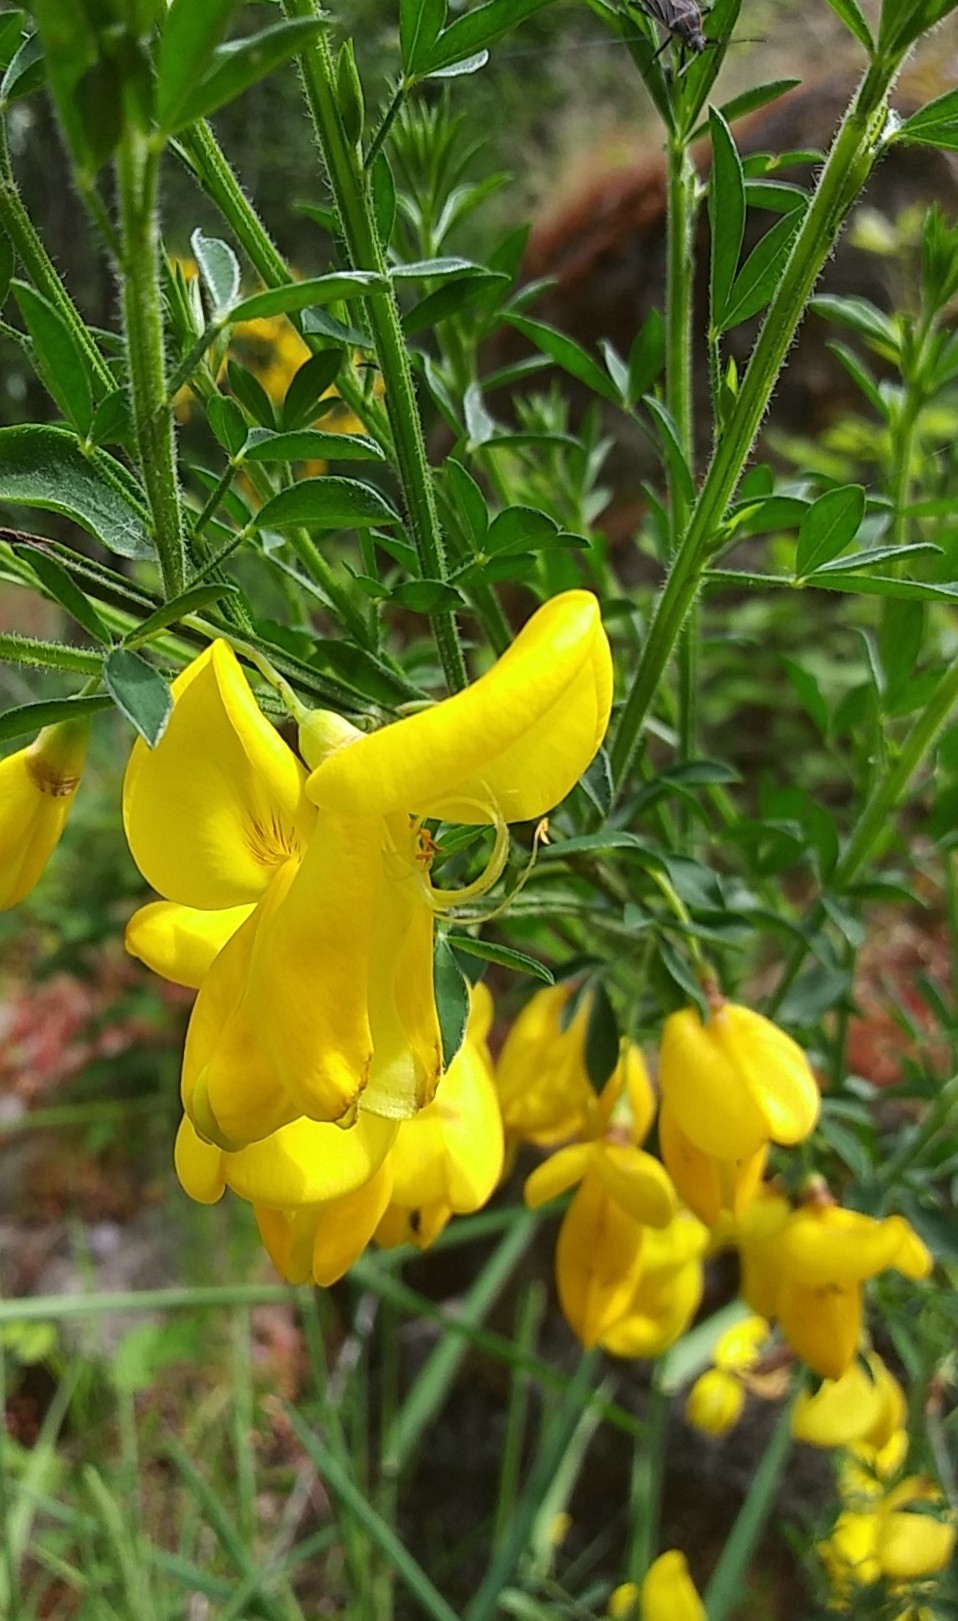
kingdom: Plantae
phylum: Tracheophyta
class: Magnoliopsida
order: Fabales
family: Fabaceae
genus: Cytisus
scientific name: Cytisus scoparius
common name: Scotch broom
